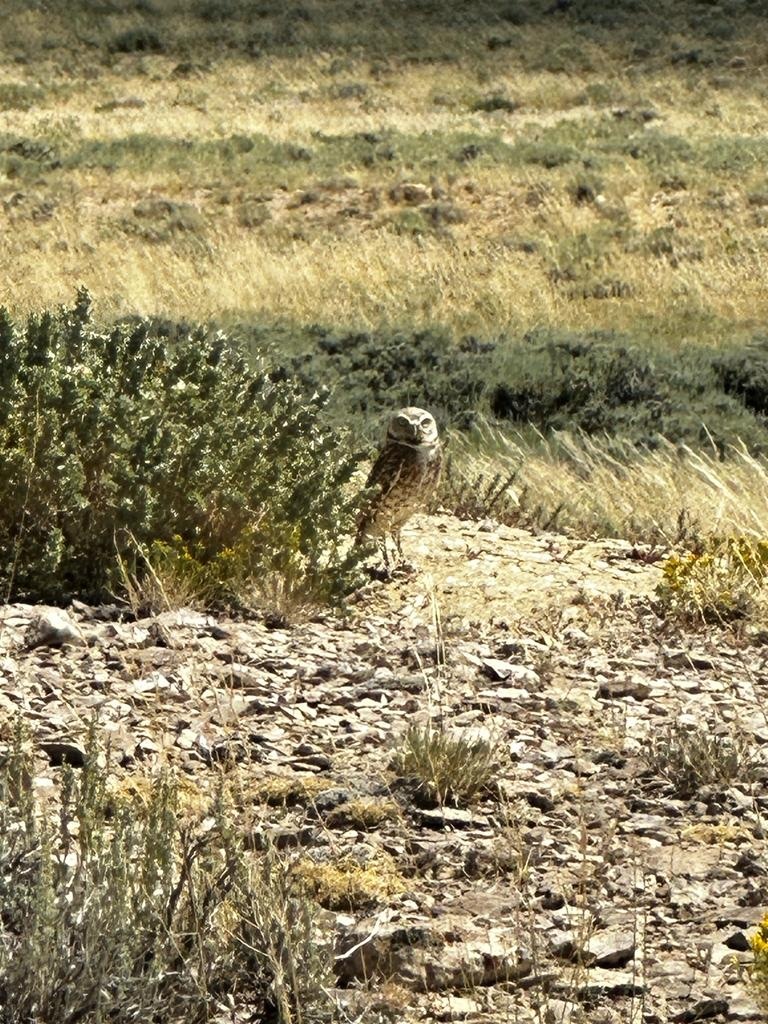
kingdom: Animalia
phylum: Chordata
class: Aves
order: Strigiformes
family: Strigidae
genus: Athene
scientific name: Athene cunicularia
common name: Burrowing owl
